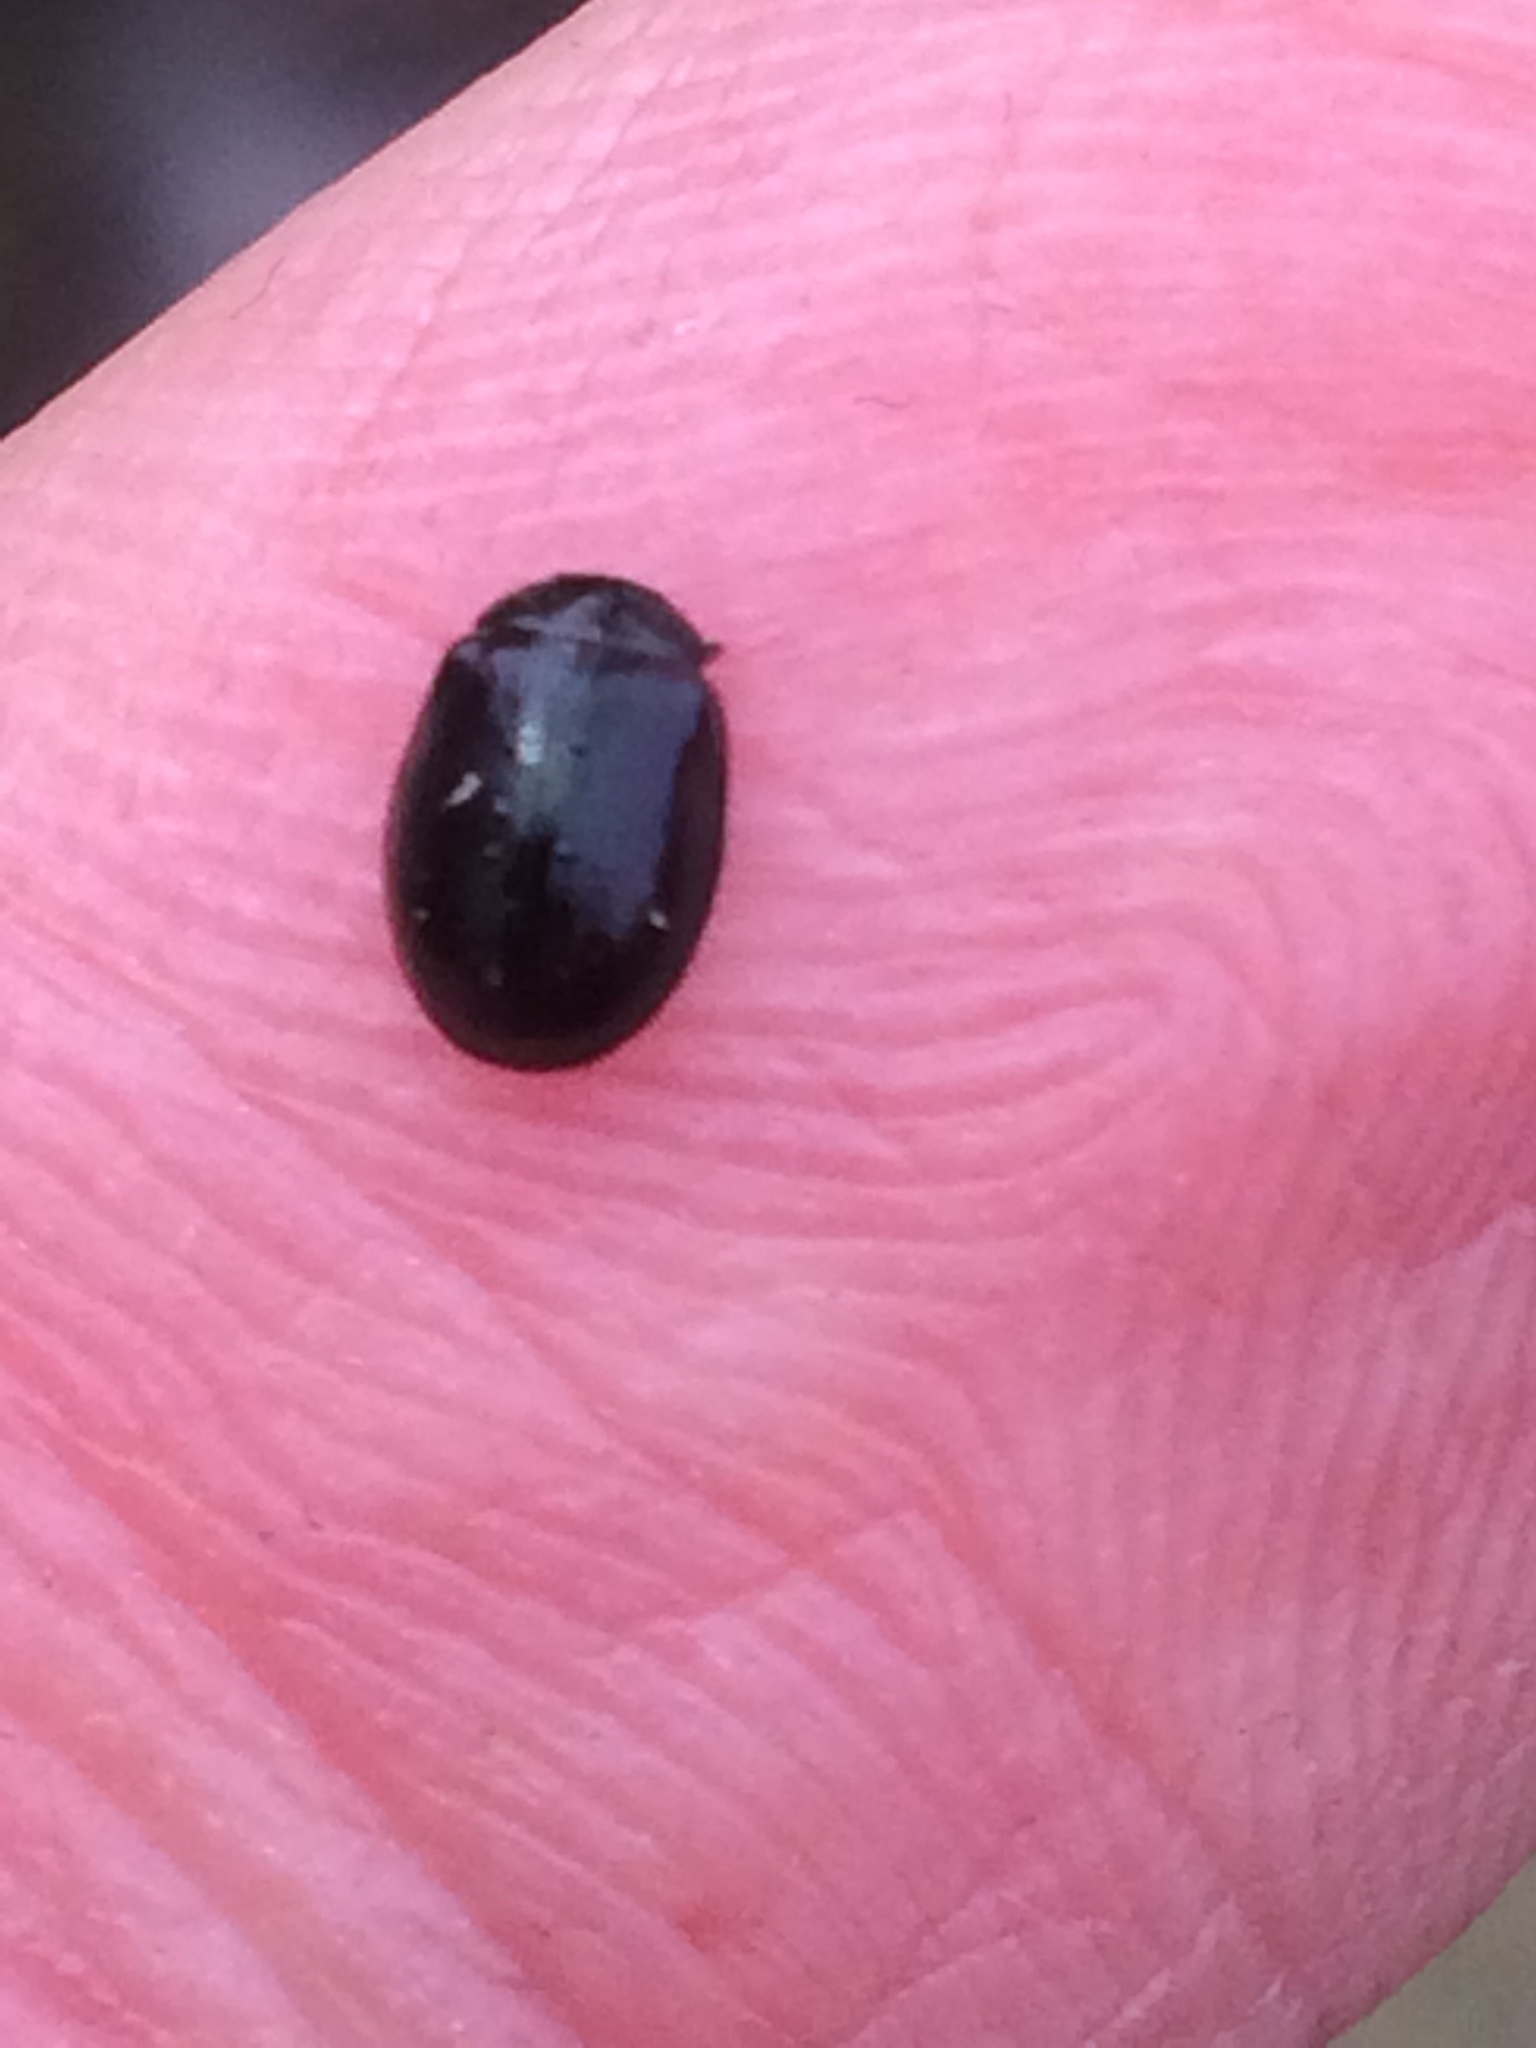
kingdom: Animalia
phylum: Arthropoda
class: Insecta
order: Coleoptera
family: Chrysomelidae
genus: Plagiodera
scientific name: Plagiodera versicolora
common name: Imported willow leaf beetle
